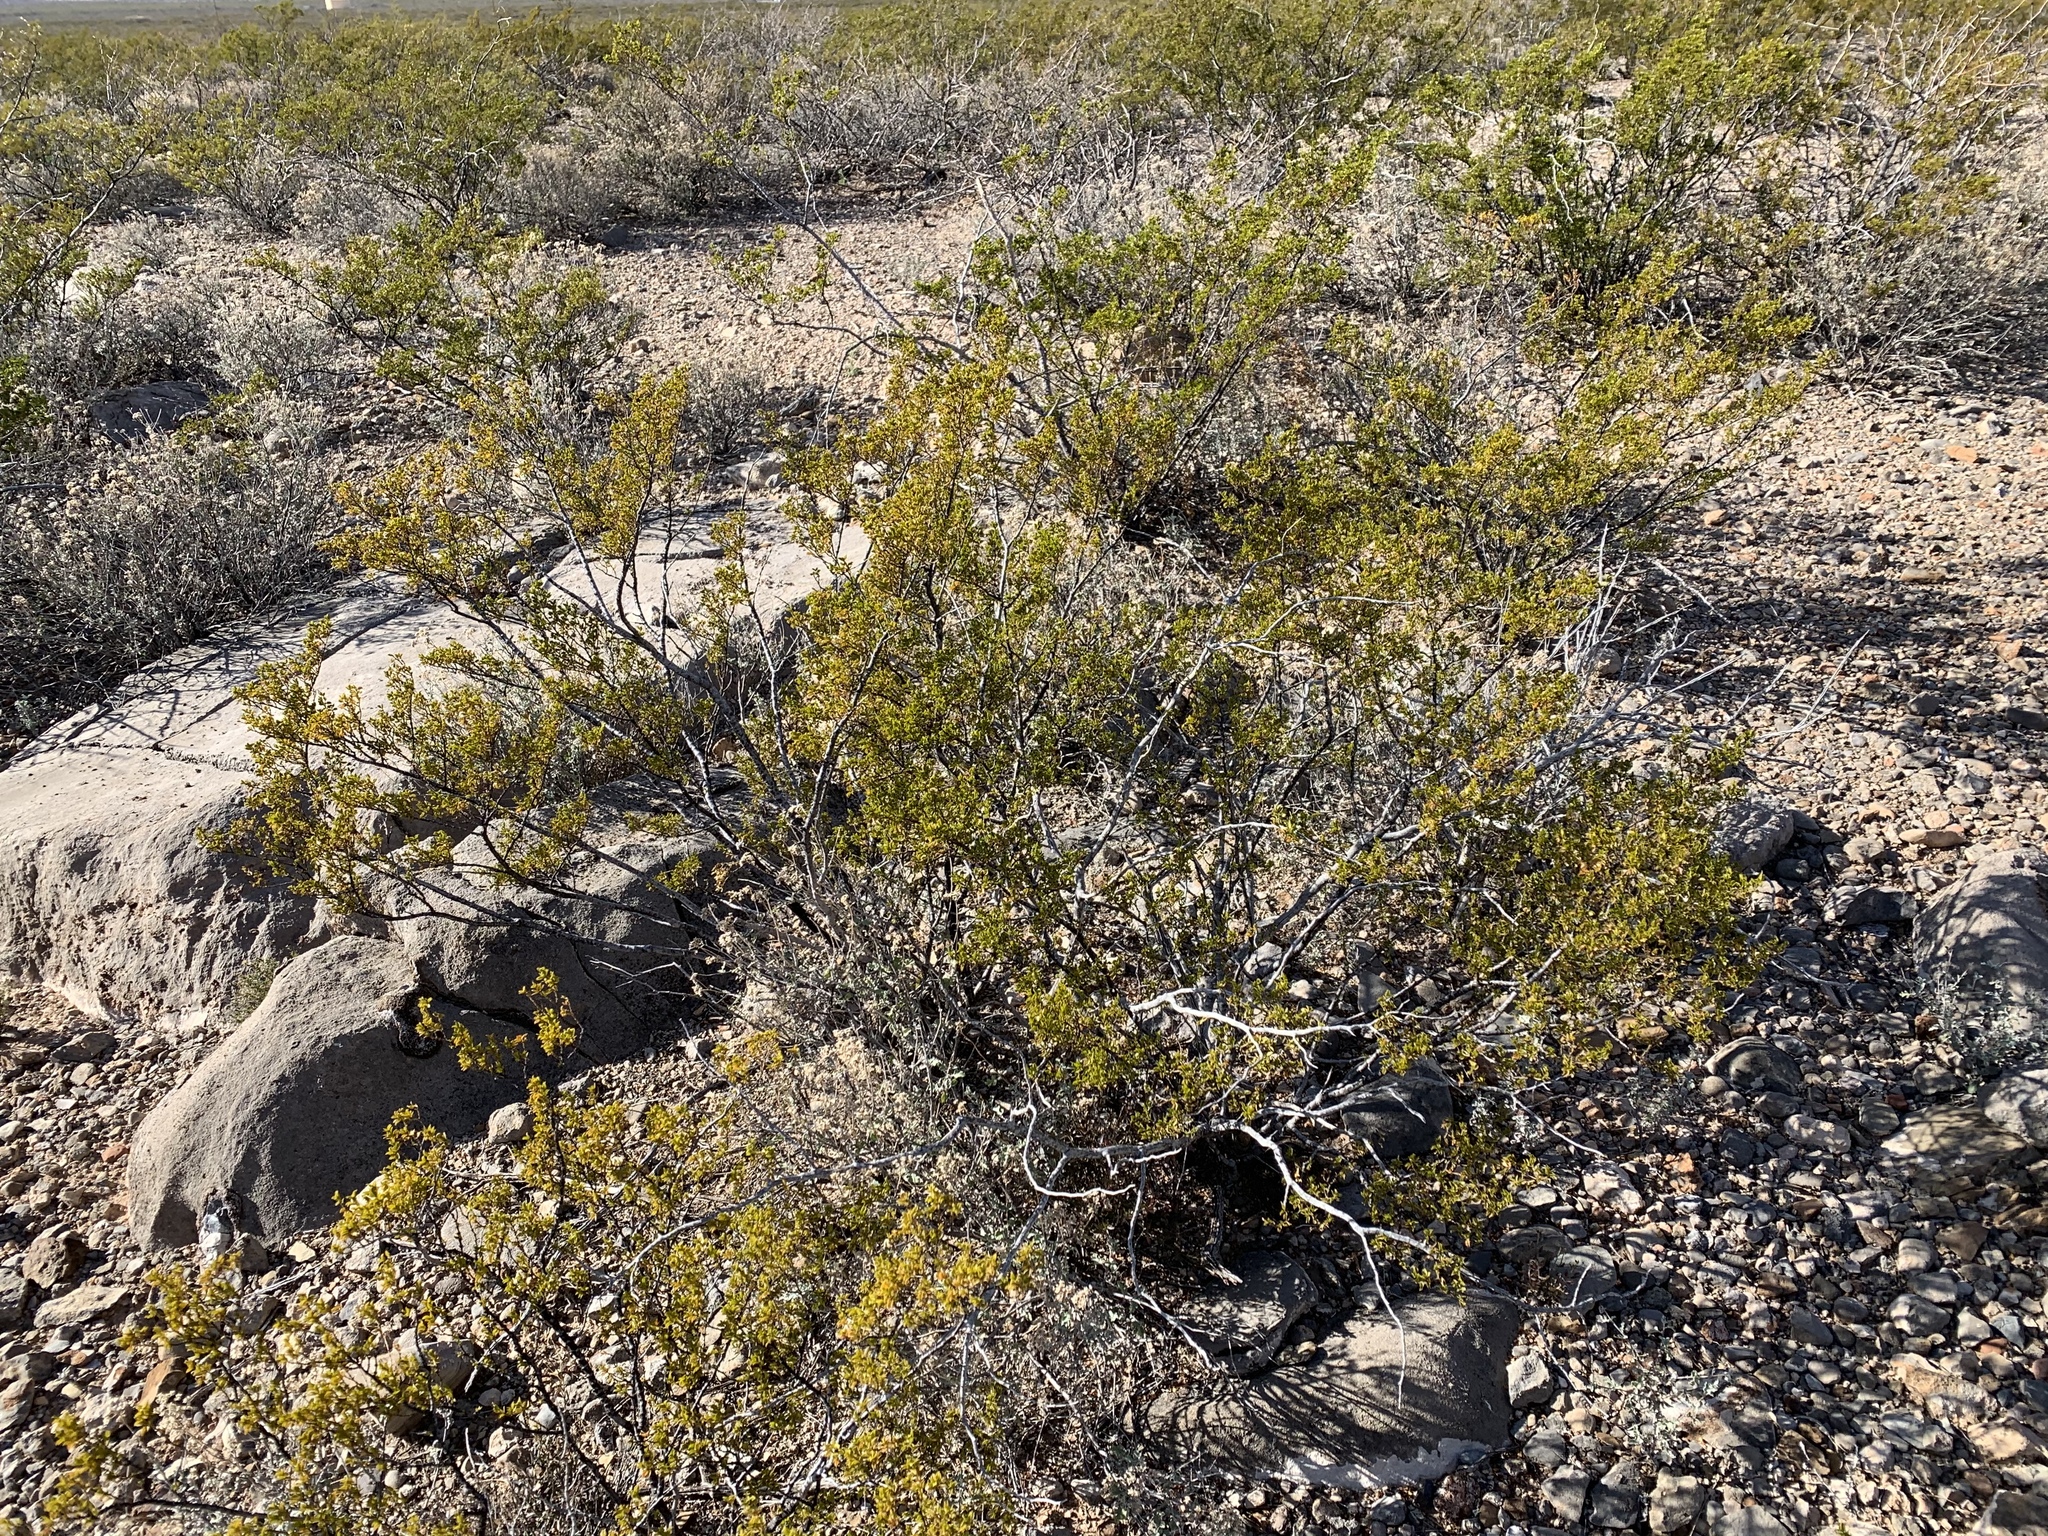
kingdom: Plantae
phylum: Tracheophyta
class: Magnoliopsida
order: Zygophyllales
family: Zygophyllaceae
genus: Larrea
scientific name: Larrea tridentata
